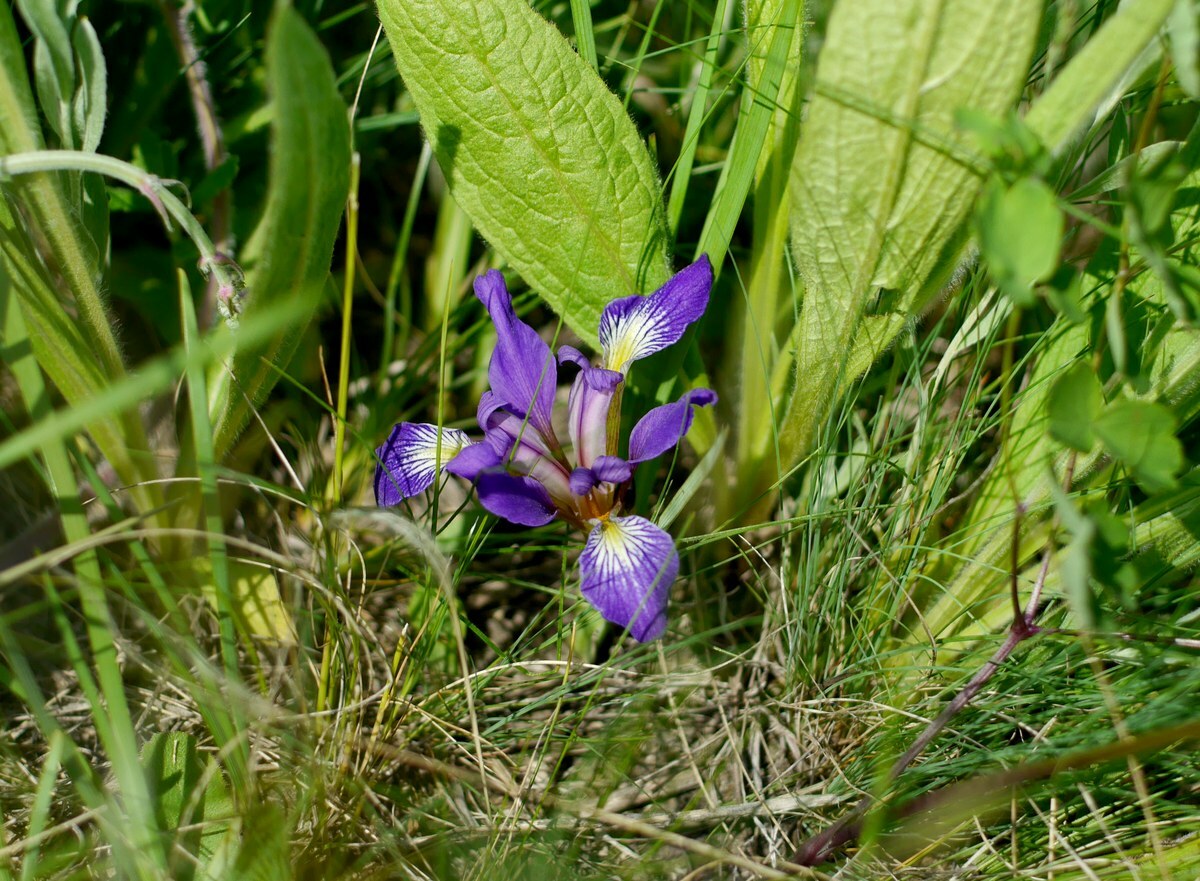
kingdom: Plantae
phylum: Tracheophyta
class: Liliopsida
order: Asparagales
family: Iridaceae
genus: Iris
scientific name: Iris pontica
